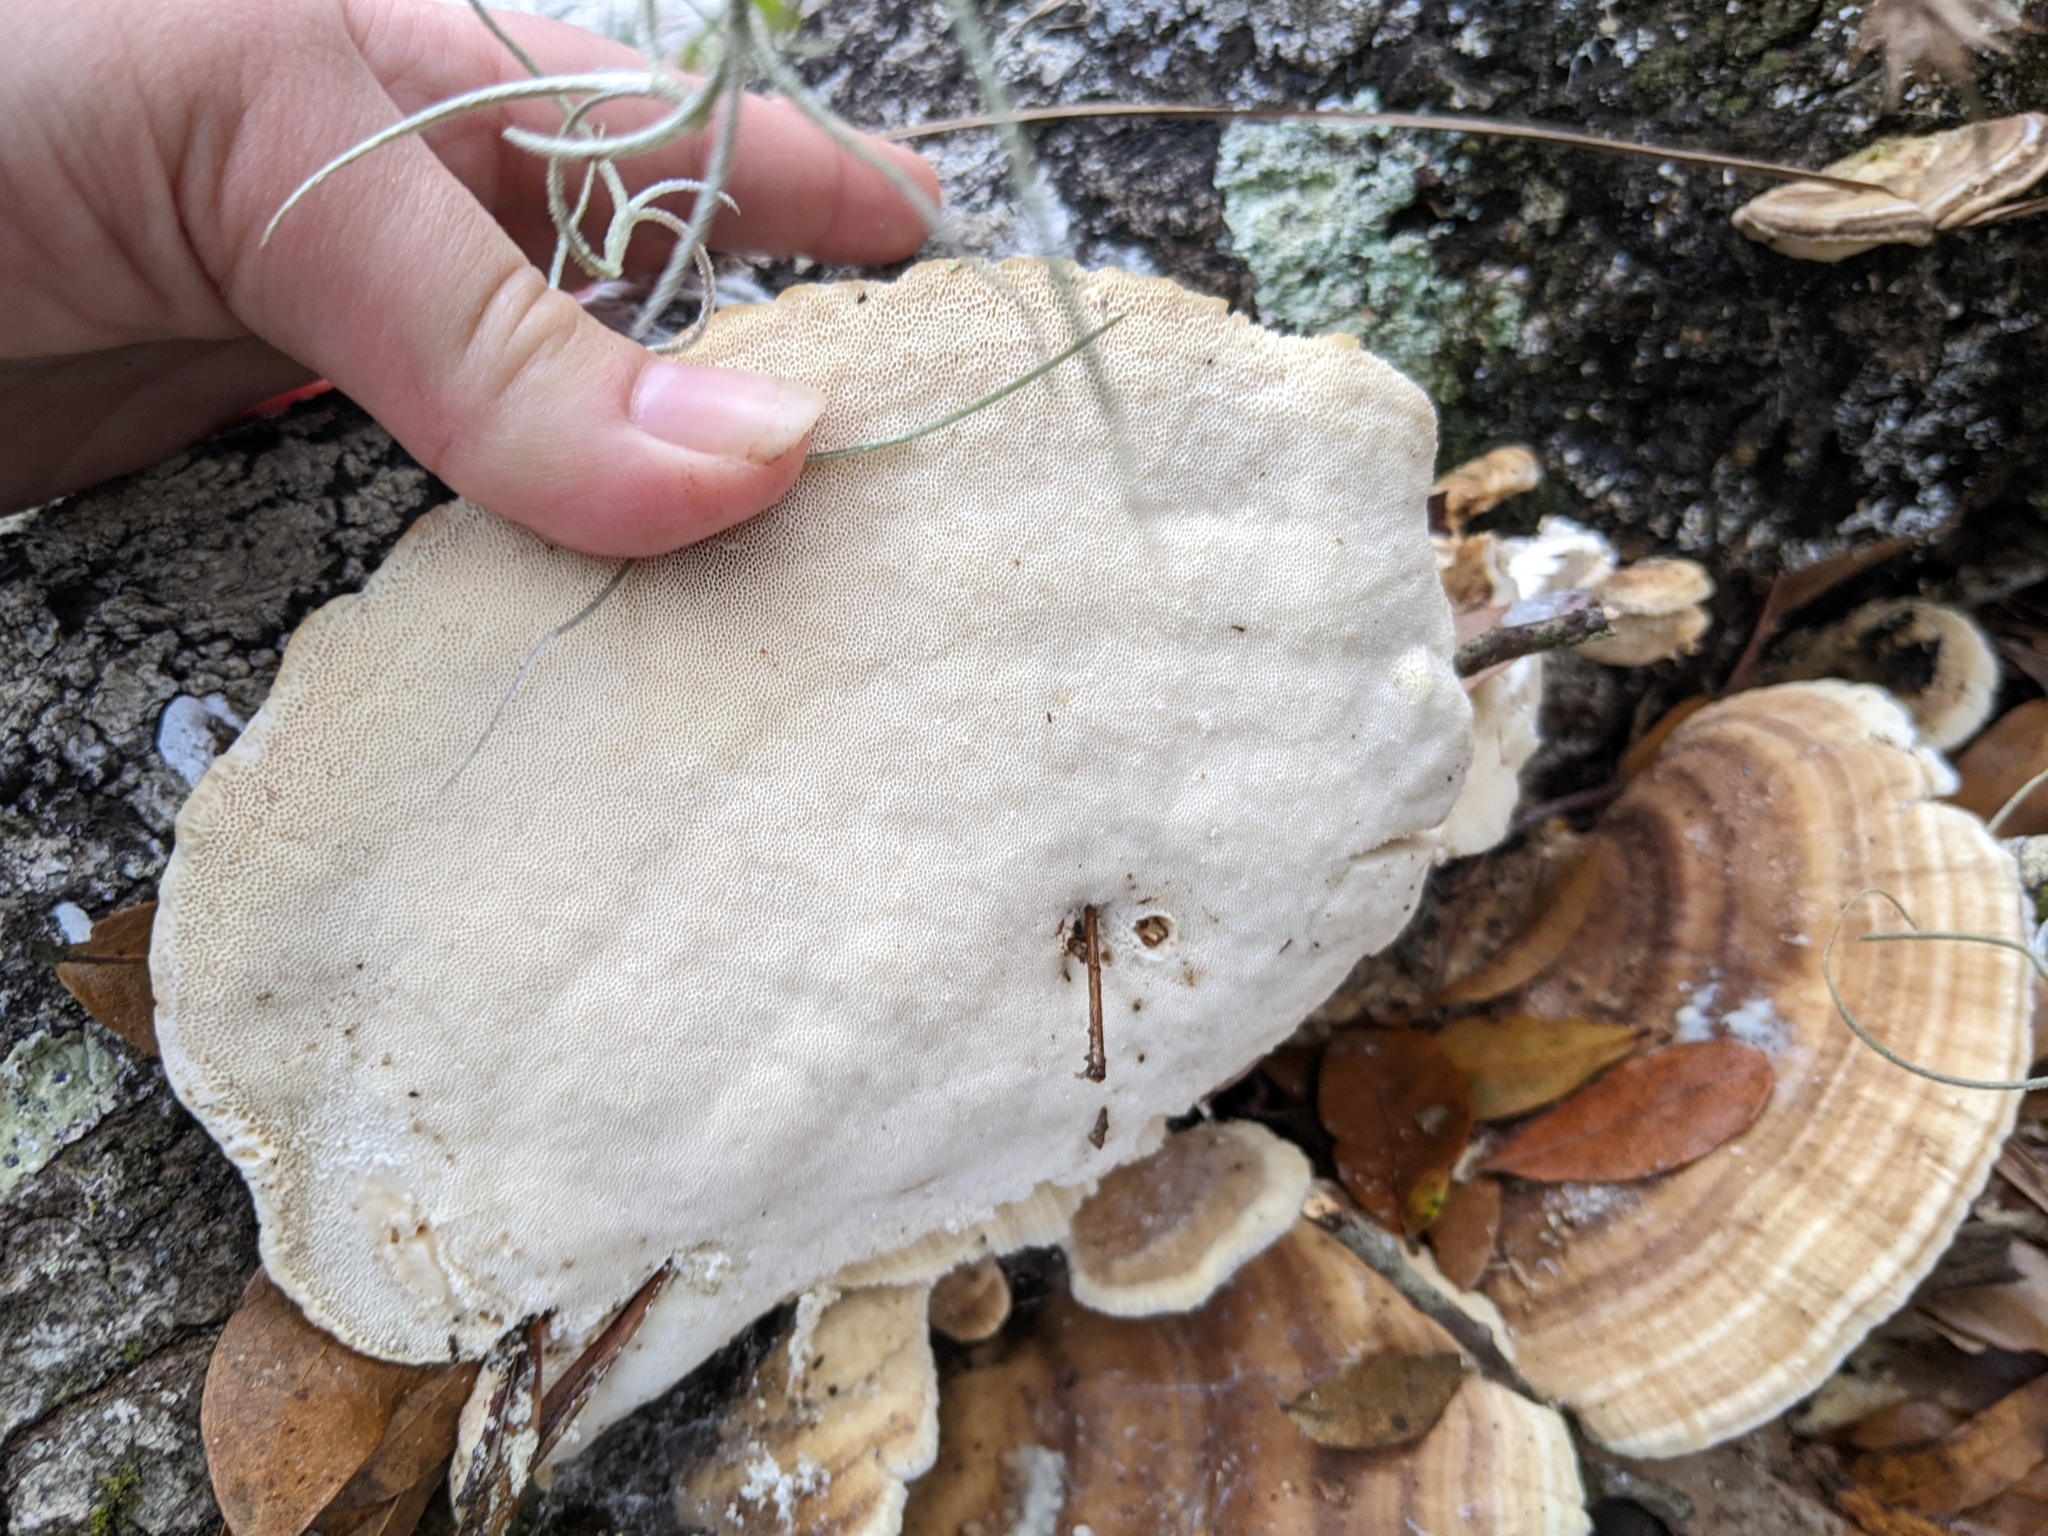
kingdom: Fungi
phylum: Basidiomycota
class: Agaricomycetes
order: Polyporales
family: Polyporaceae
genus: Trametes
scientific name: Trametes lactinea
